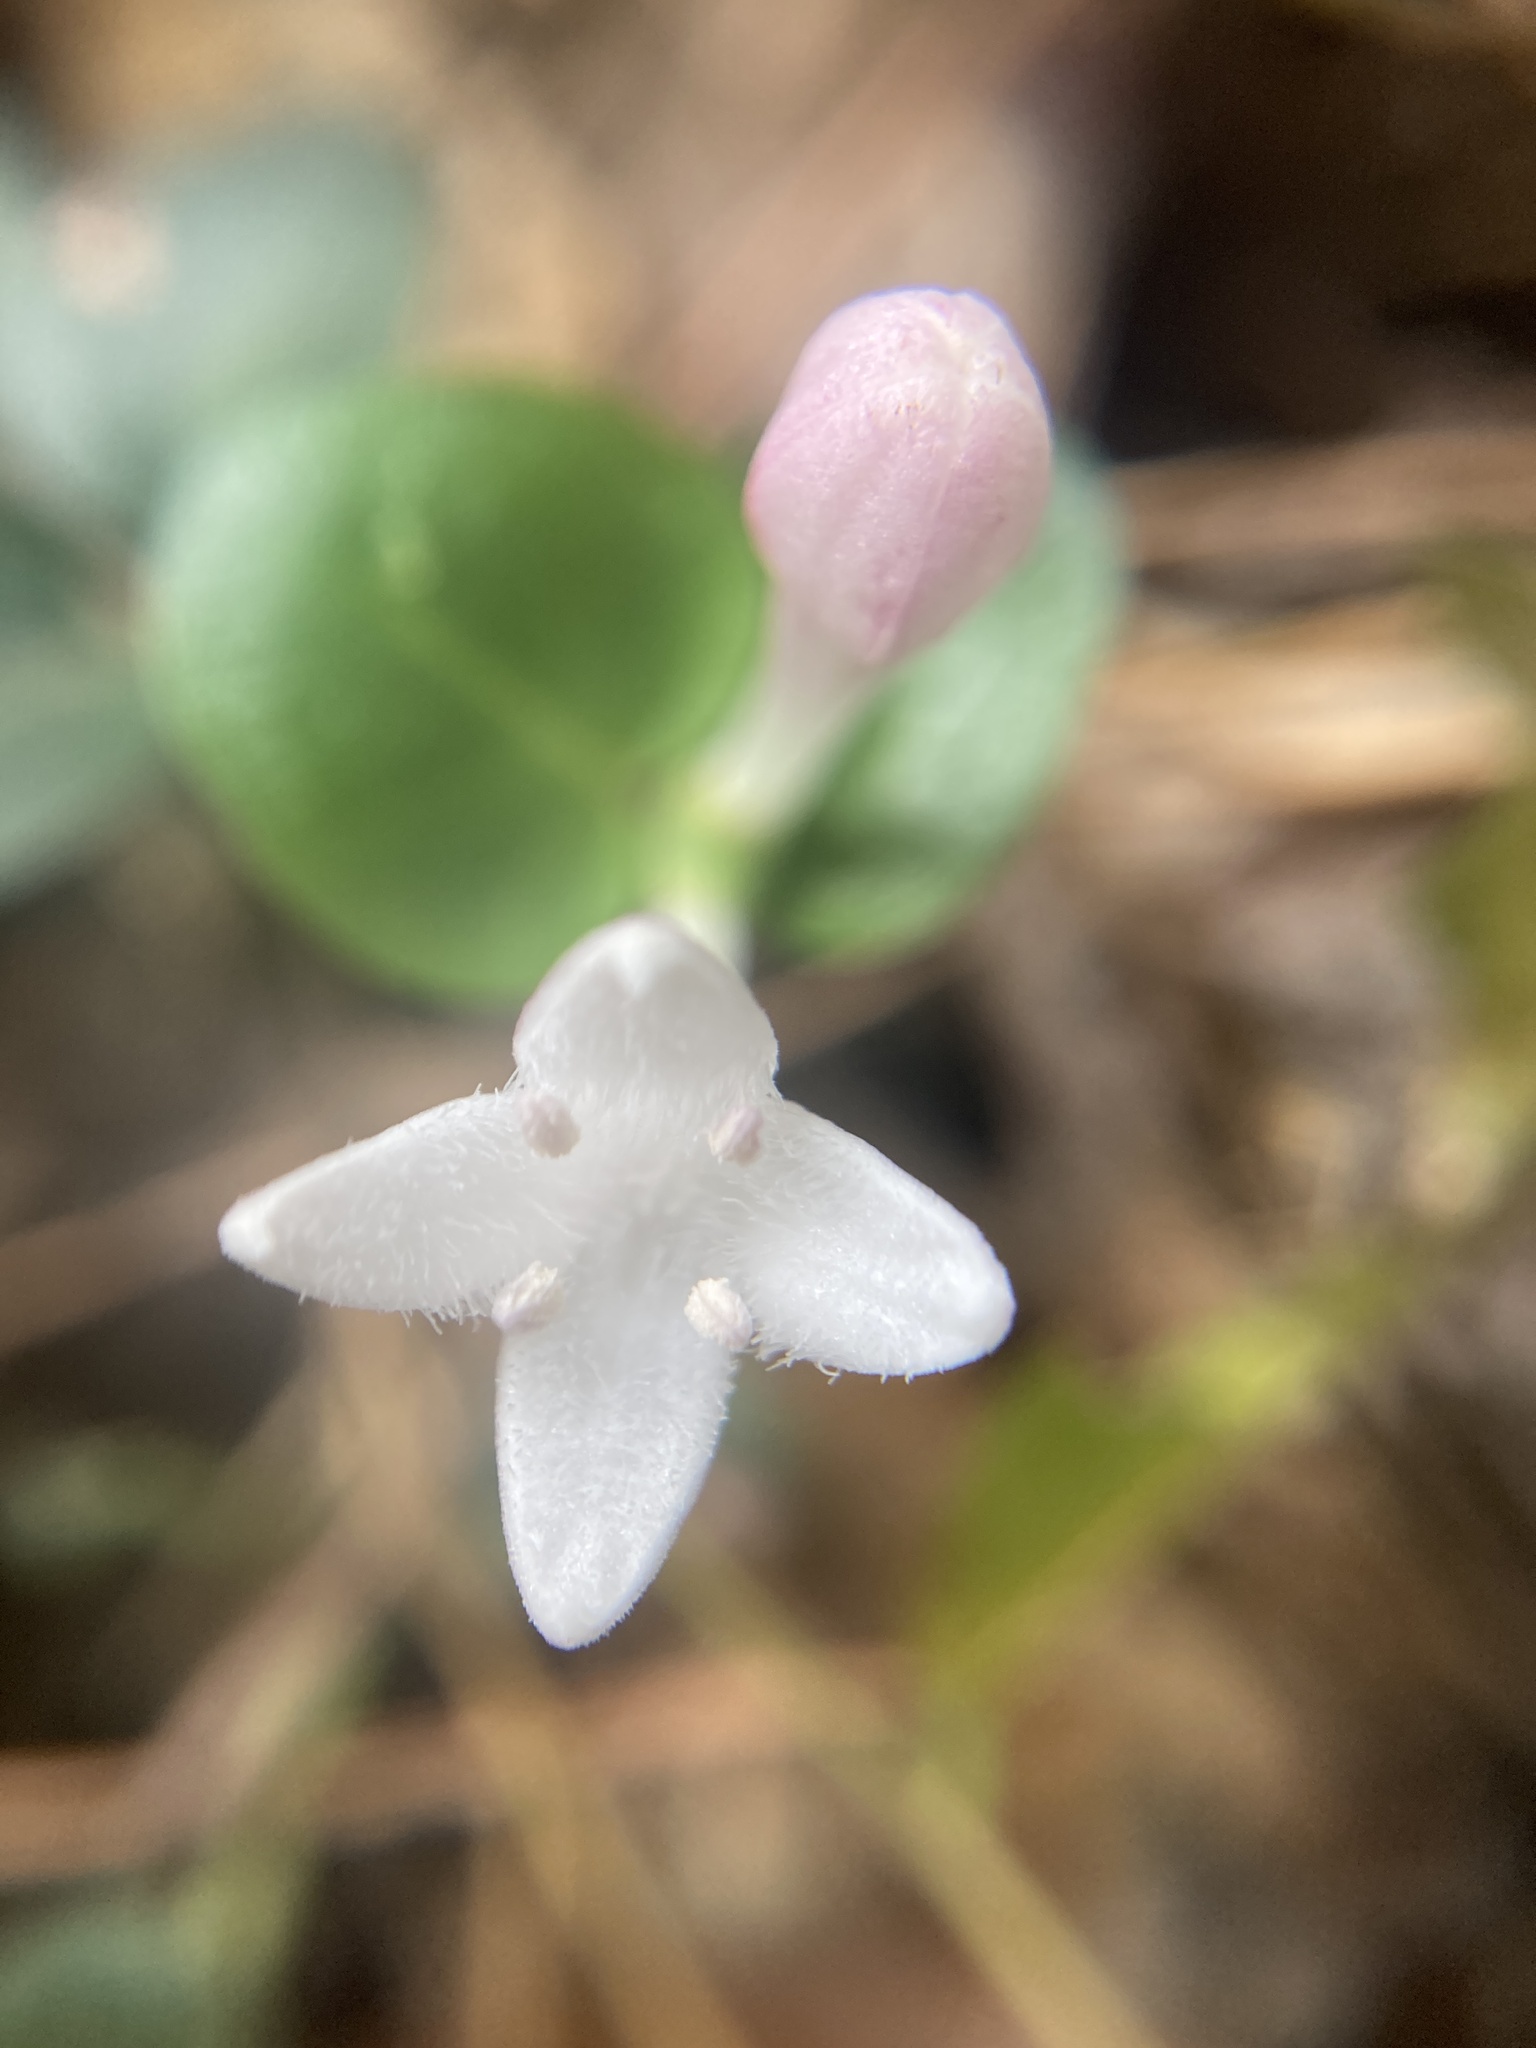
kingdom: Plantae
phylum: Tracheophyta
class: Magnoliopsida
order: Gentianales
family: Rubiaceae
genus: Mitchella
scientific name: Mitchella repens
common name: Partridge-berry
